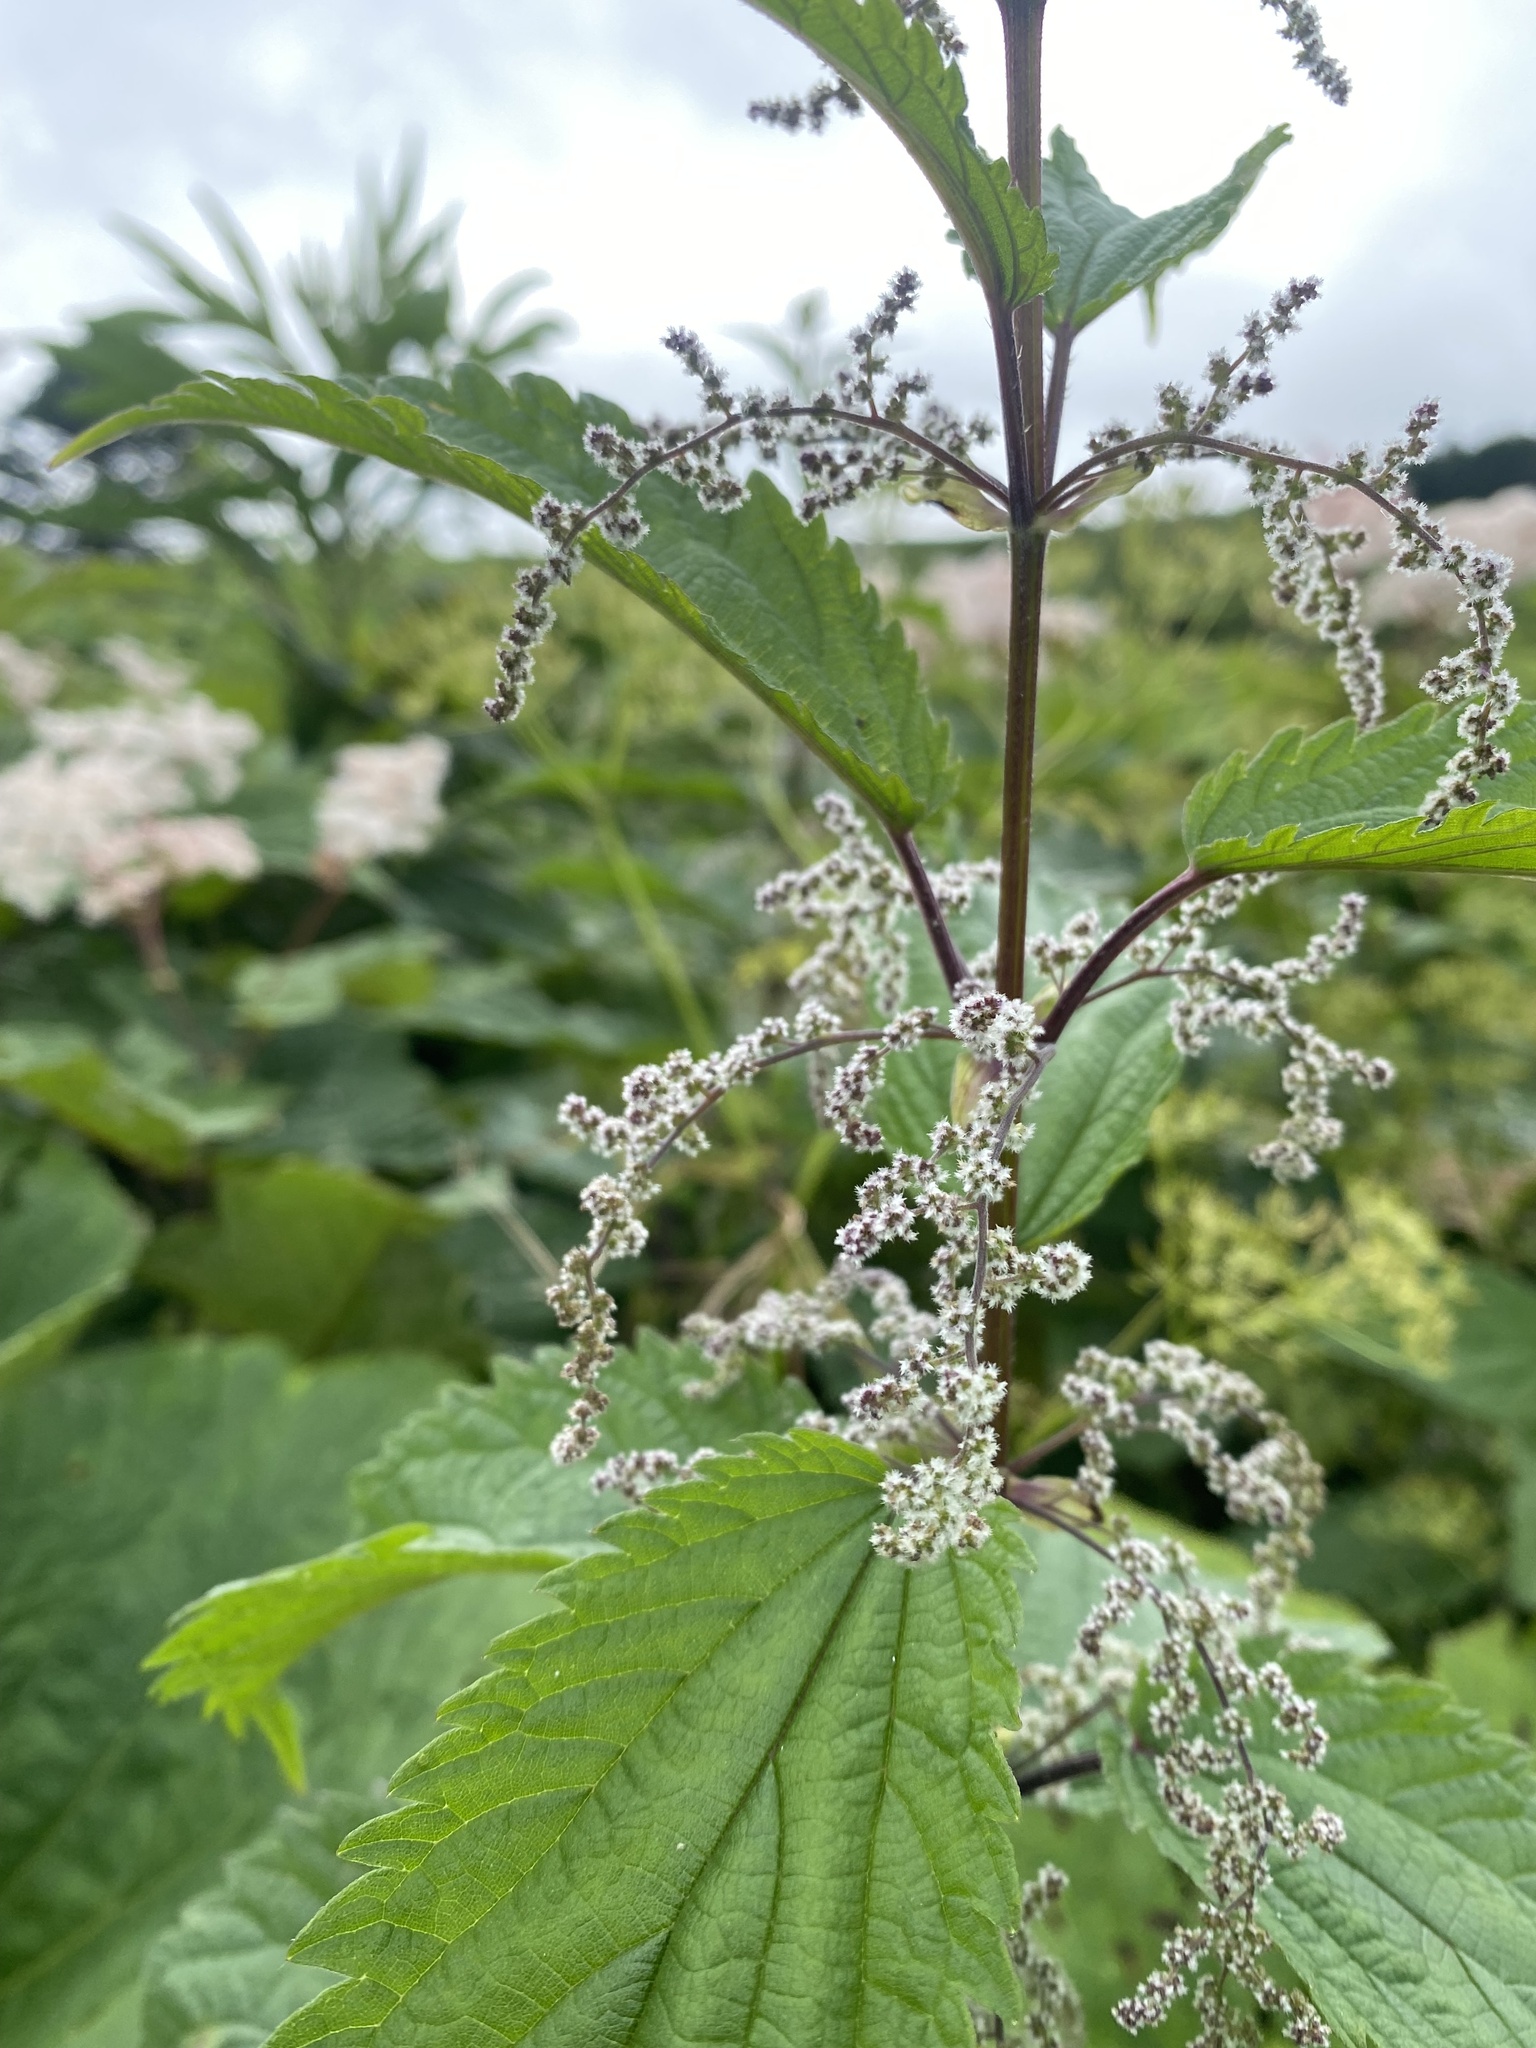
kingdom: Plantae
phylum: Tracheophyta
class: Magnoliopsida
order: Rosales
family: Urticaceae
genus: Urtica
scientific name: Urtica platyphylla
